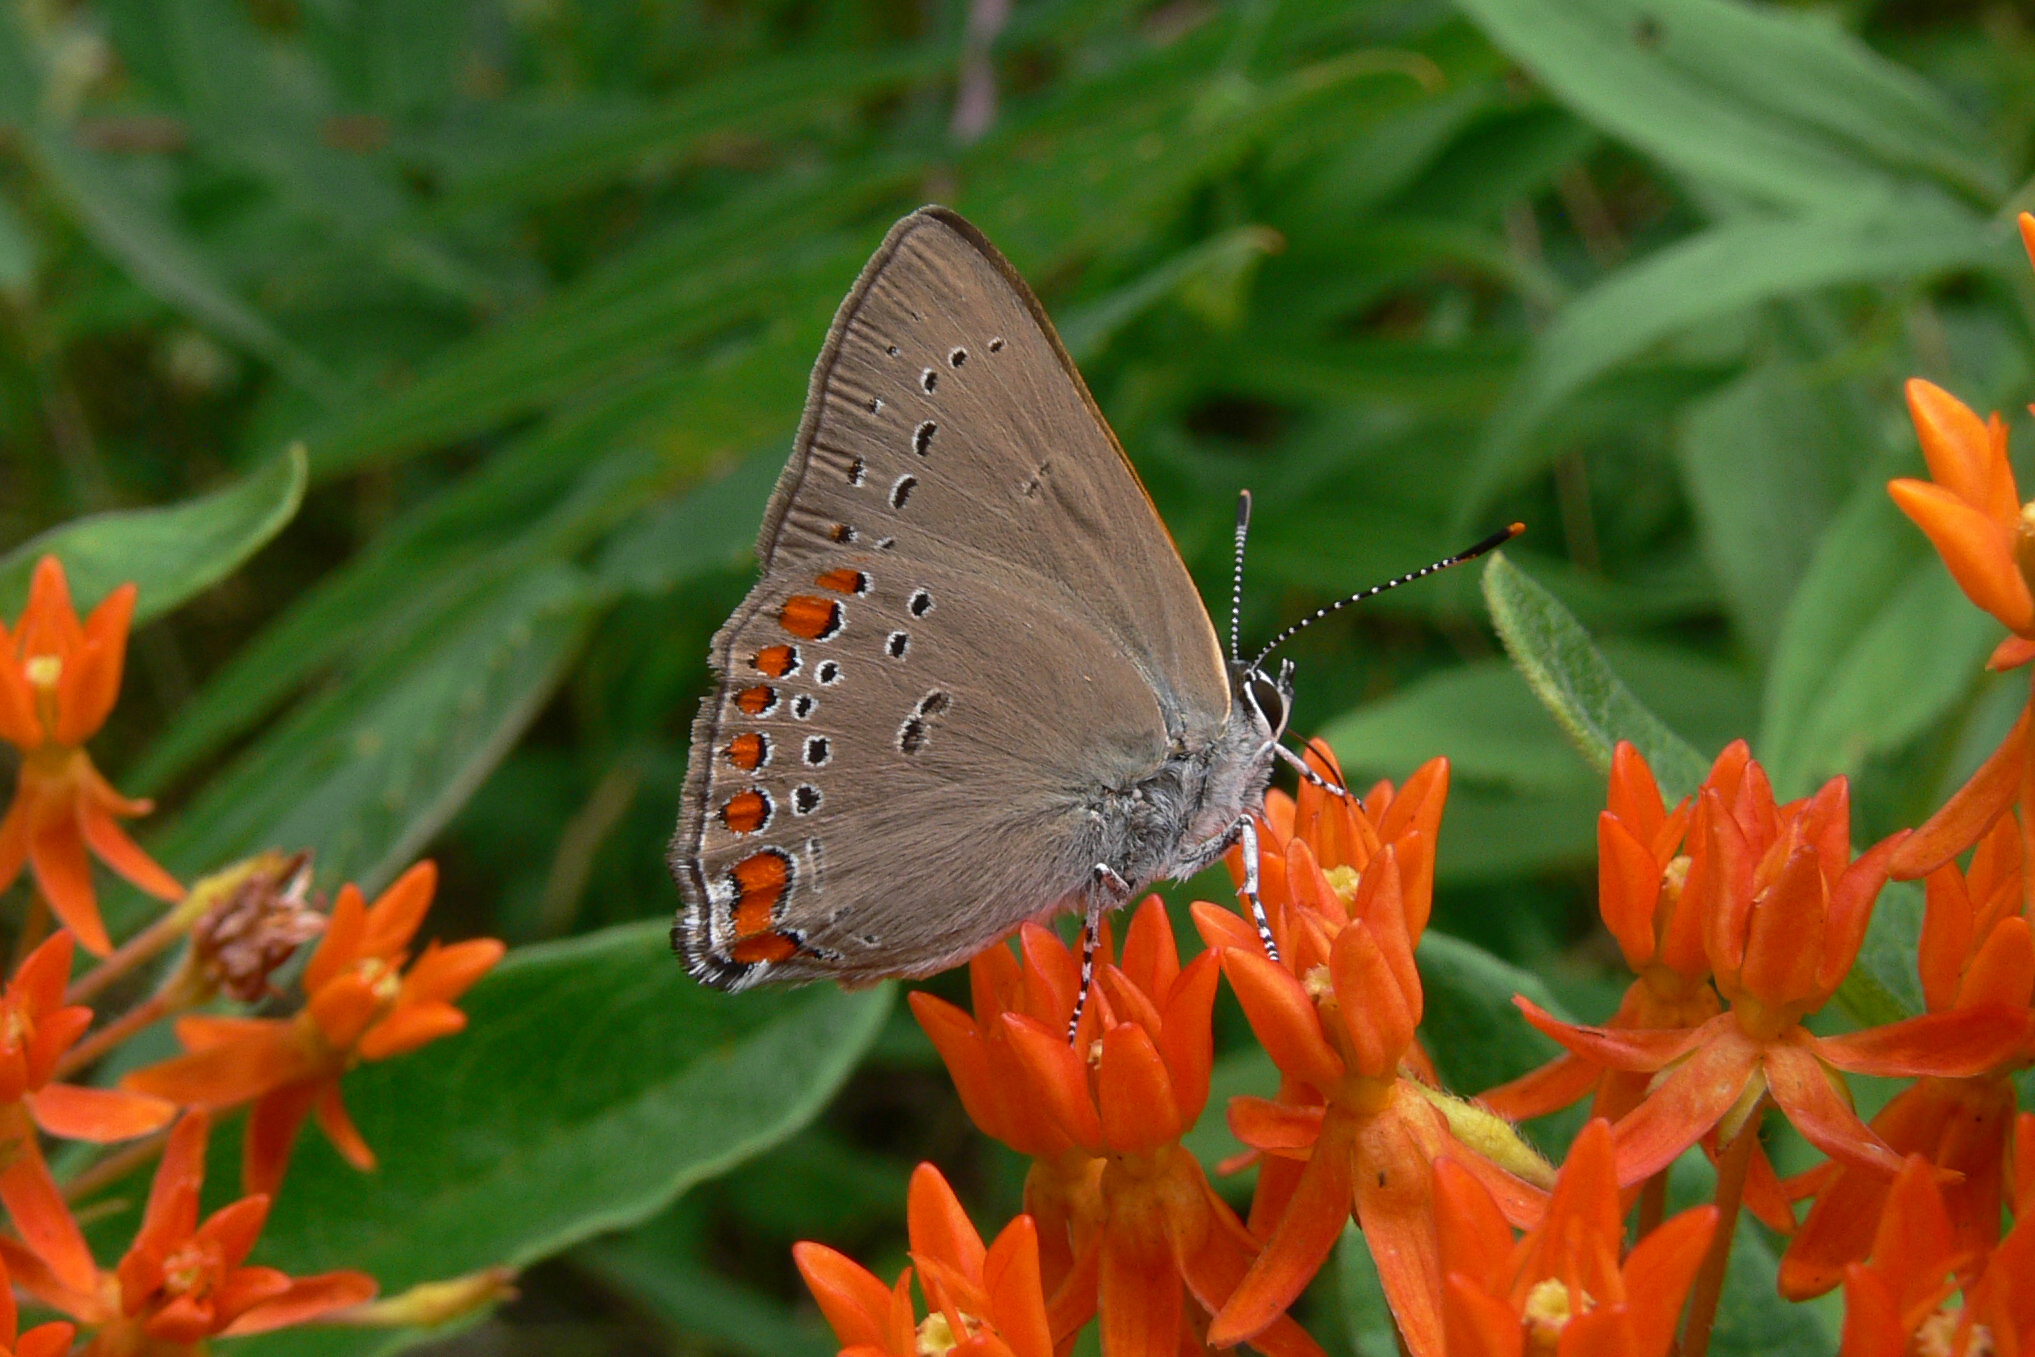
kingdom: Animalia
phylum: Arthropoda
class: Insecta
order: Lepidoptera
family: Lycaenidae
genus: Harkenclenus
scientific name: Harkenclenus titus
